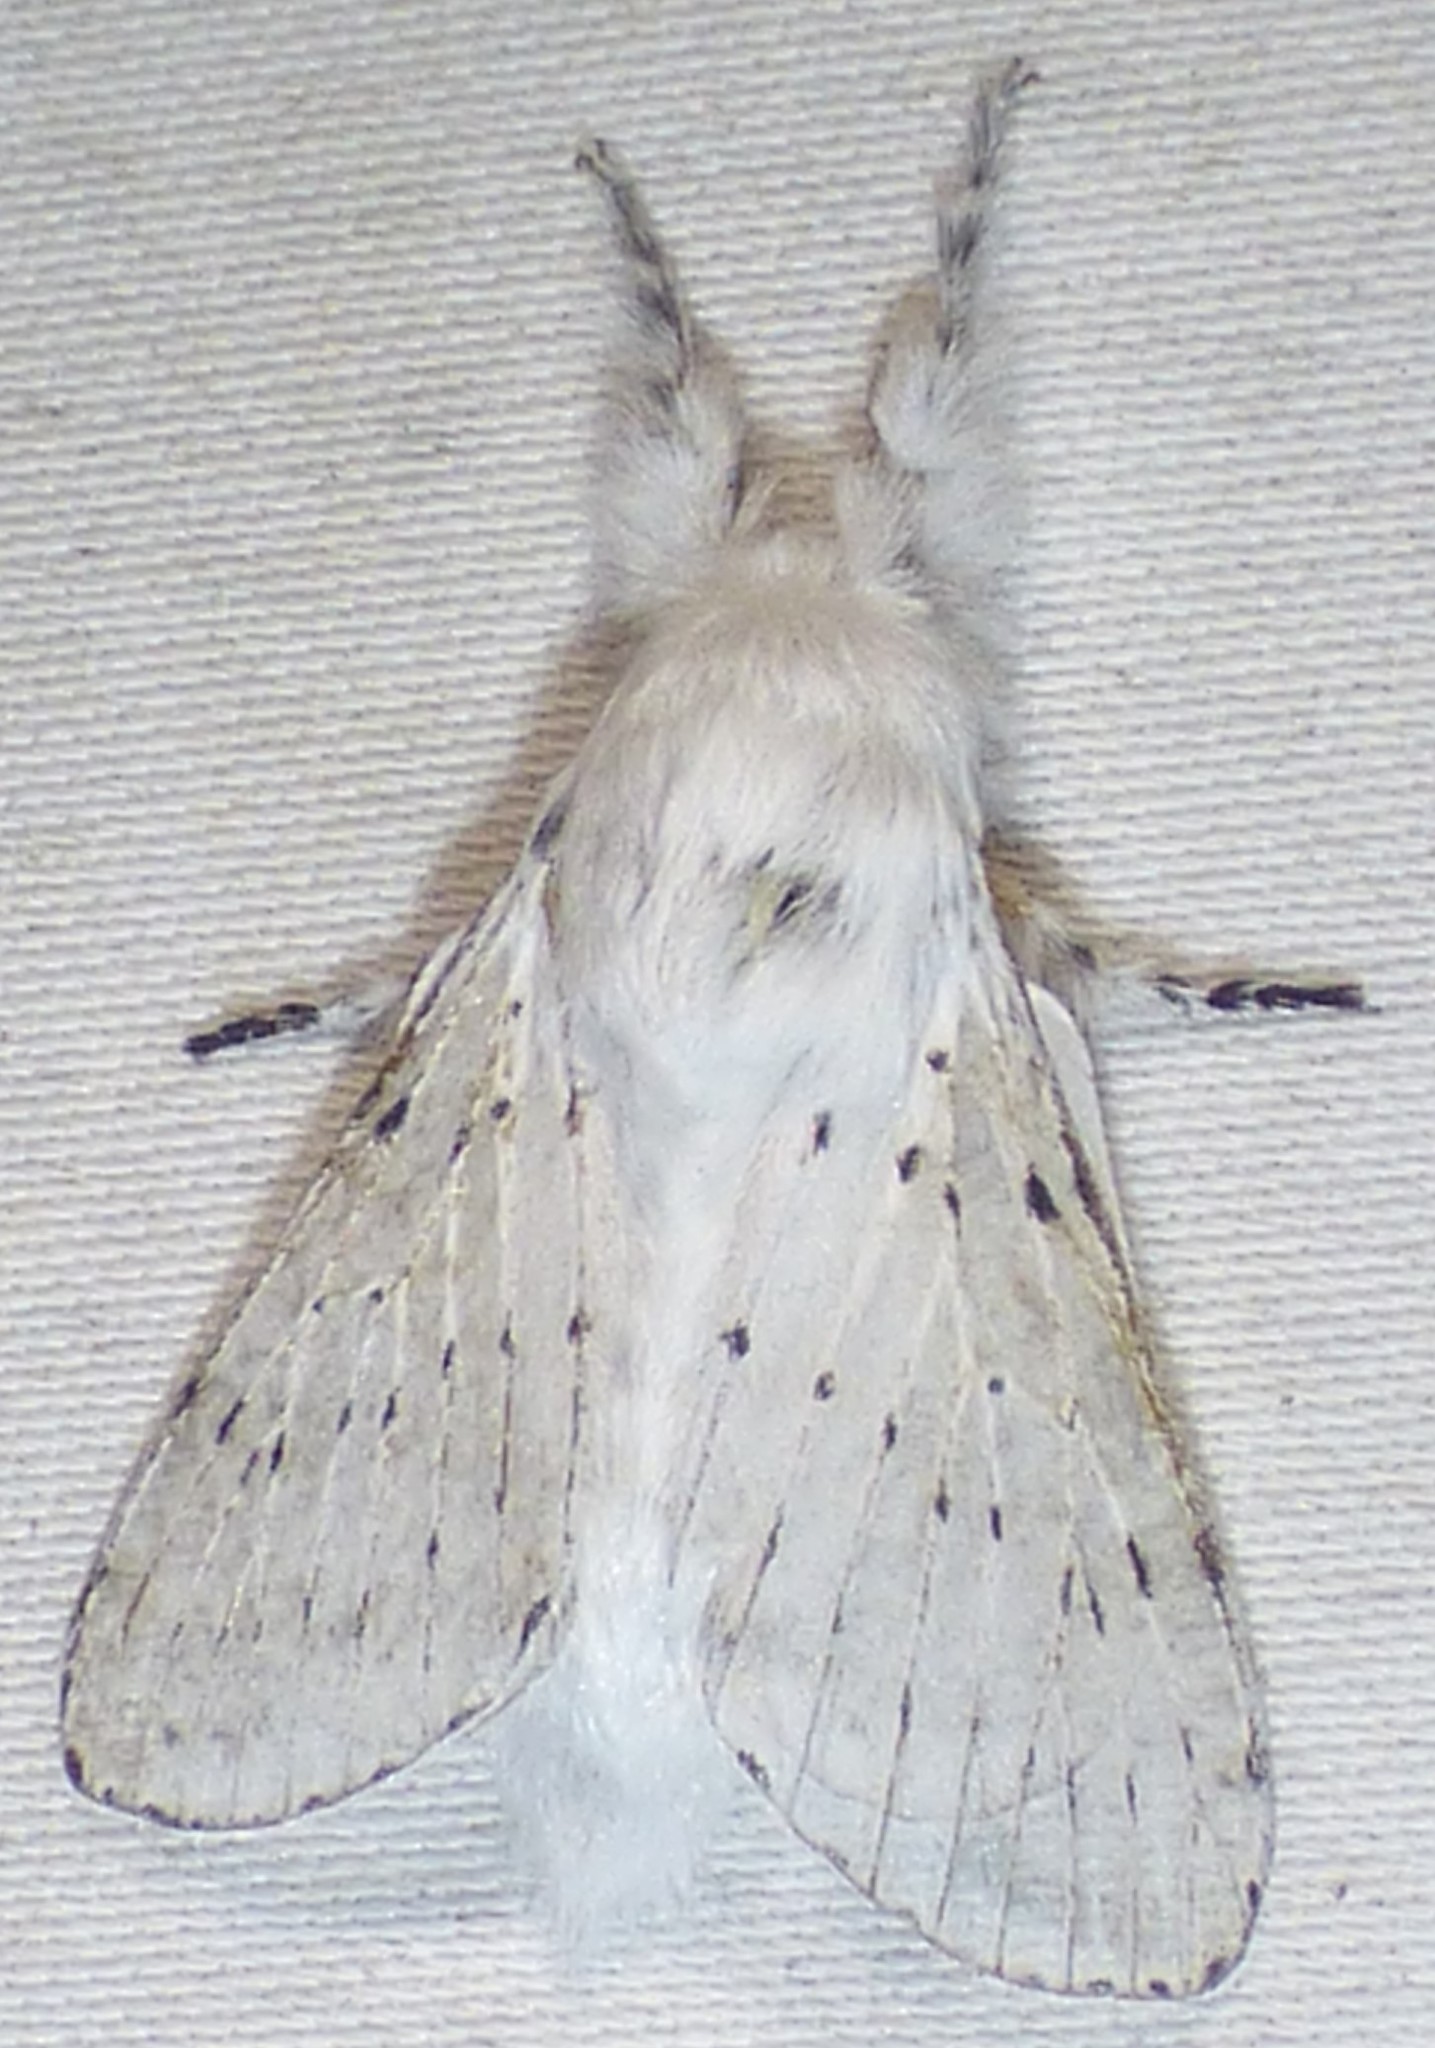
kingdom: Animalia
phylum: Arthropoda
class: Insecta
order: Lepidoptera
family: Lasiocampidae
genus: Artace
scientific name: Artace cribrarius
